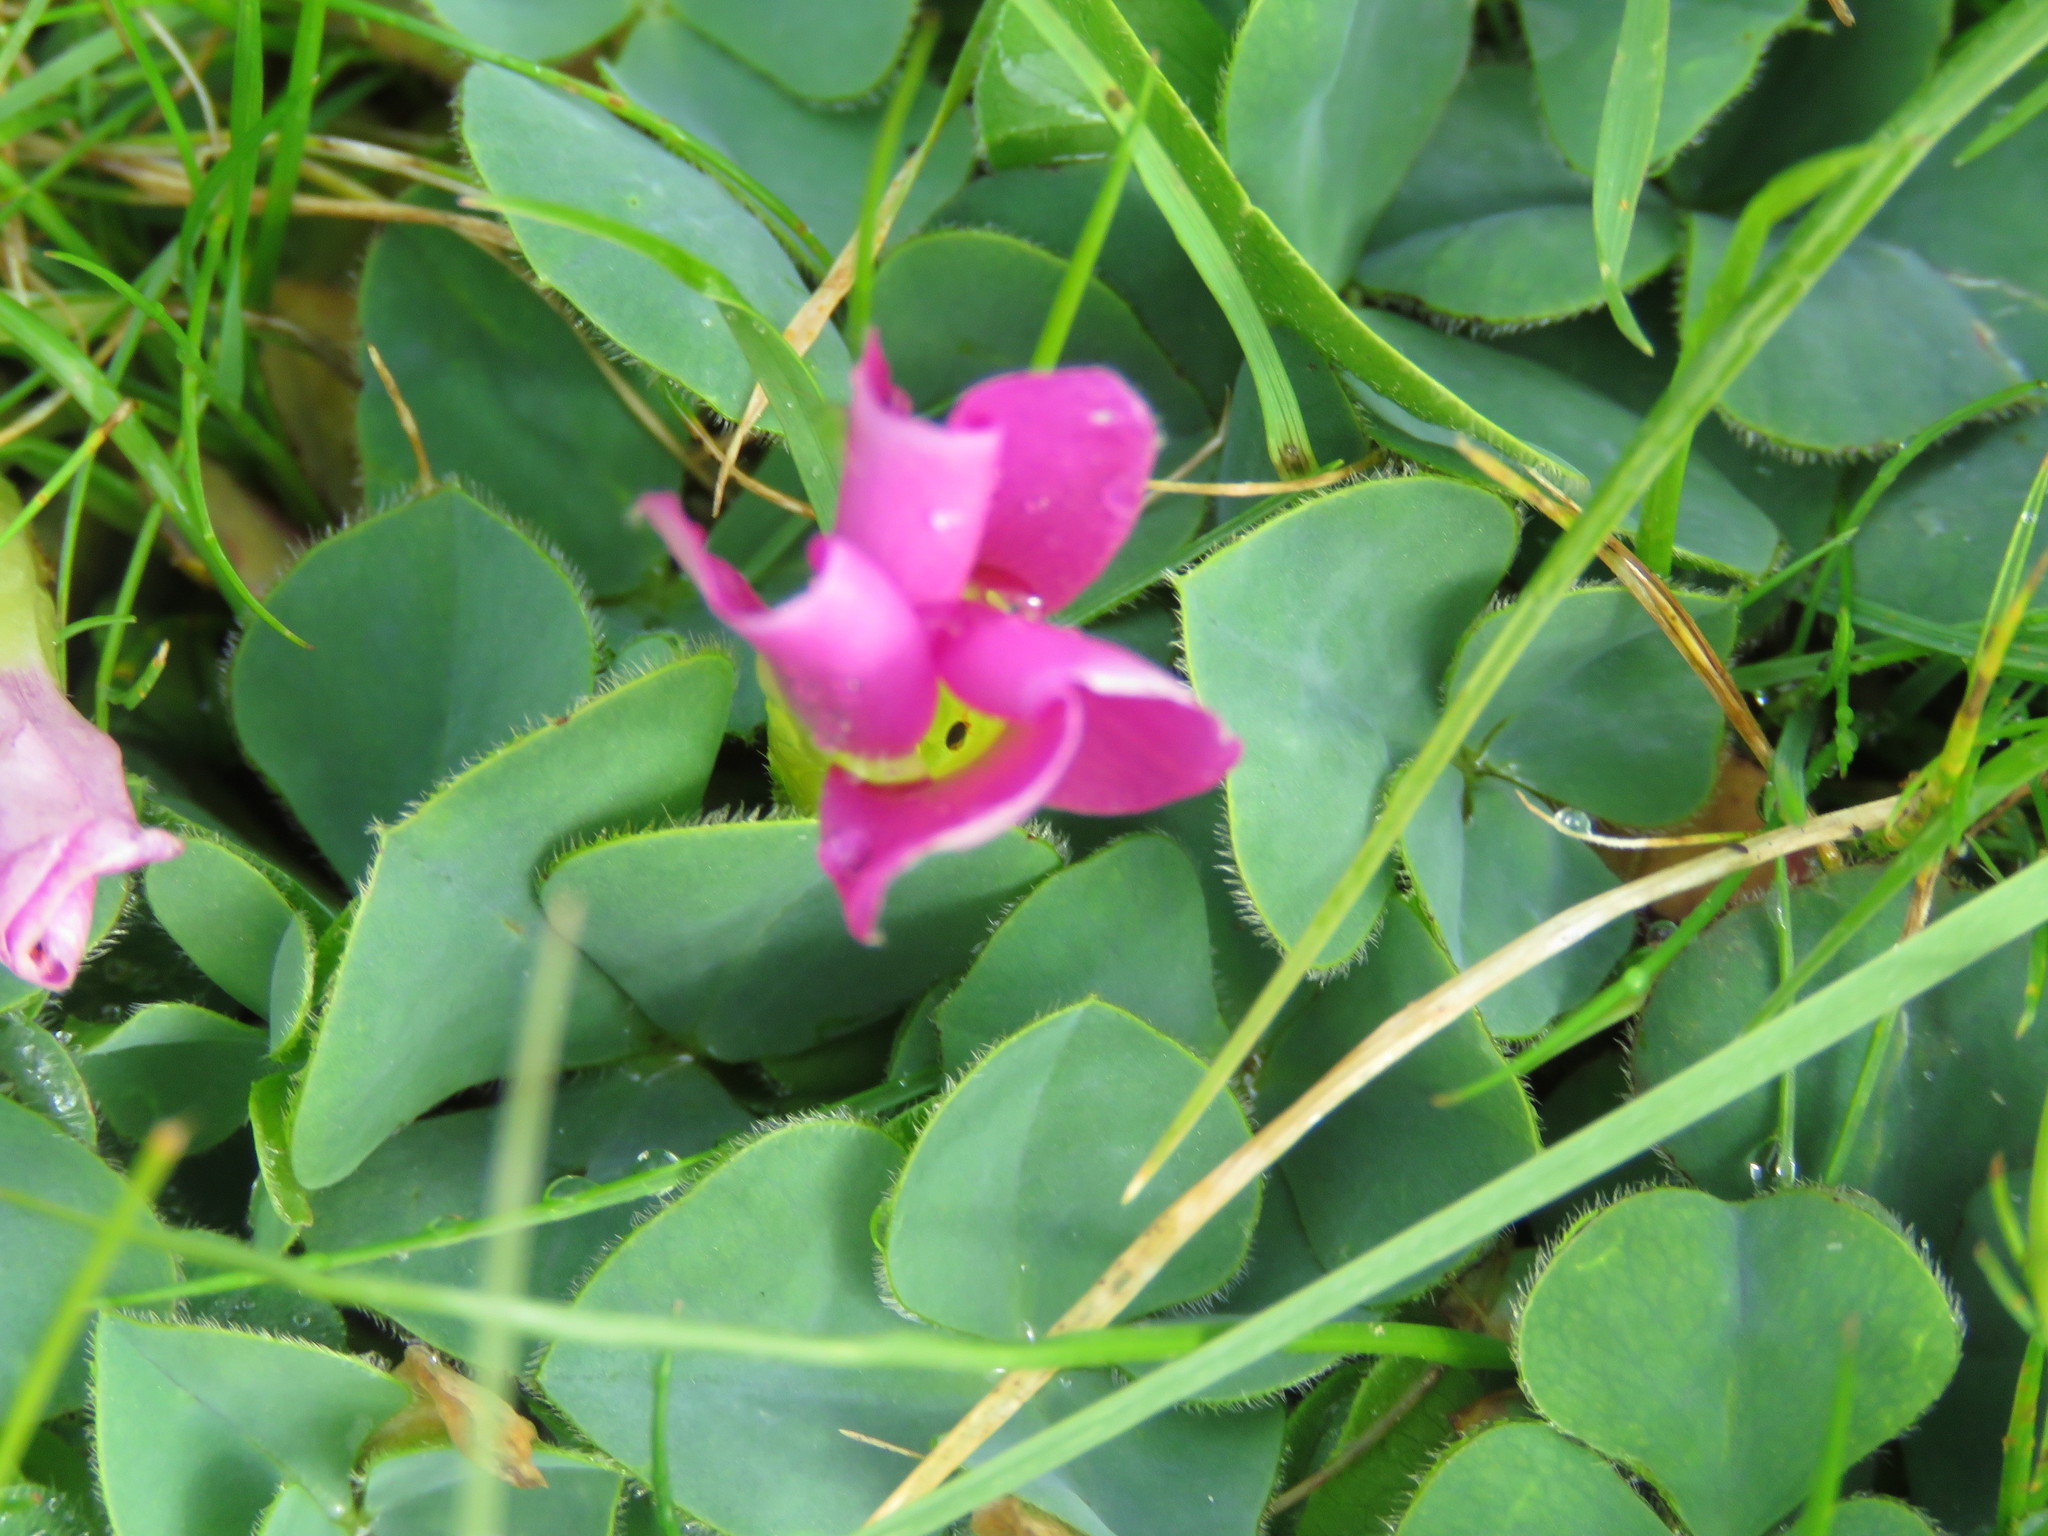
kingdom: Plantae
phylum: Tracheophyta
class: Magnoliopsida
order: Oxalidales
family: Oxalidaceae
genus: Oxalis
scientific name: Oxalis purpurea
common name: Purple woodsorrel
